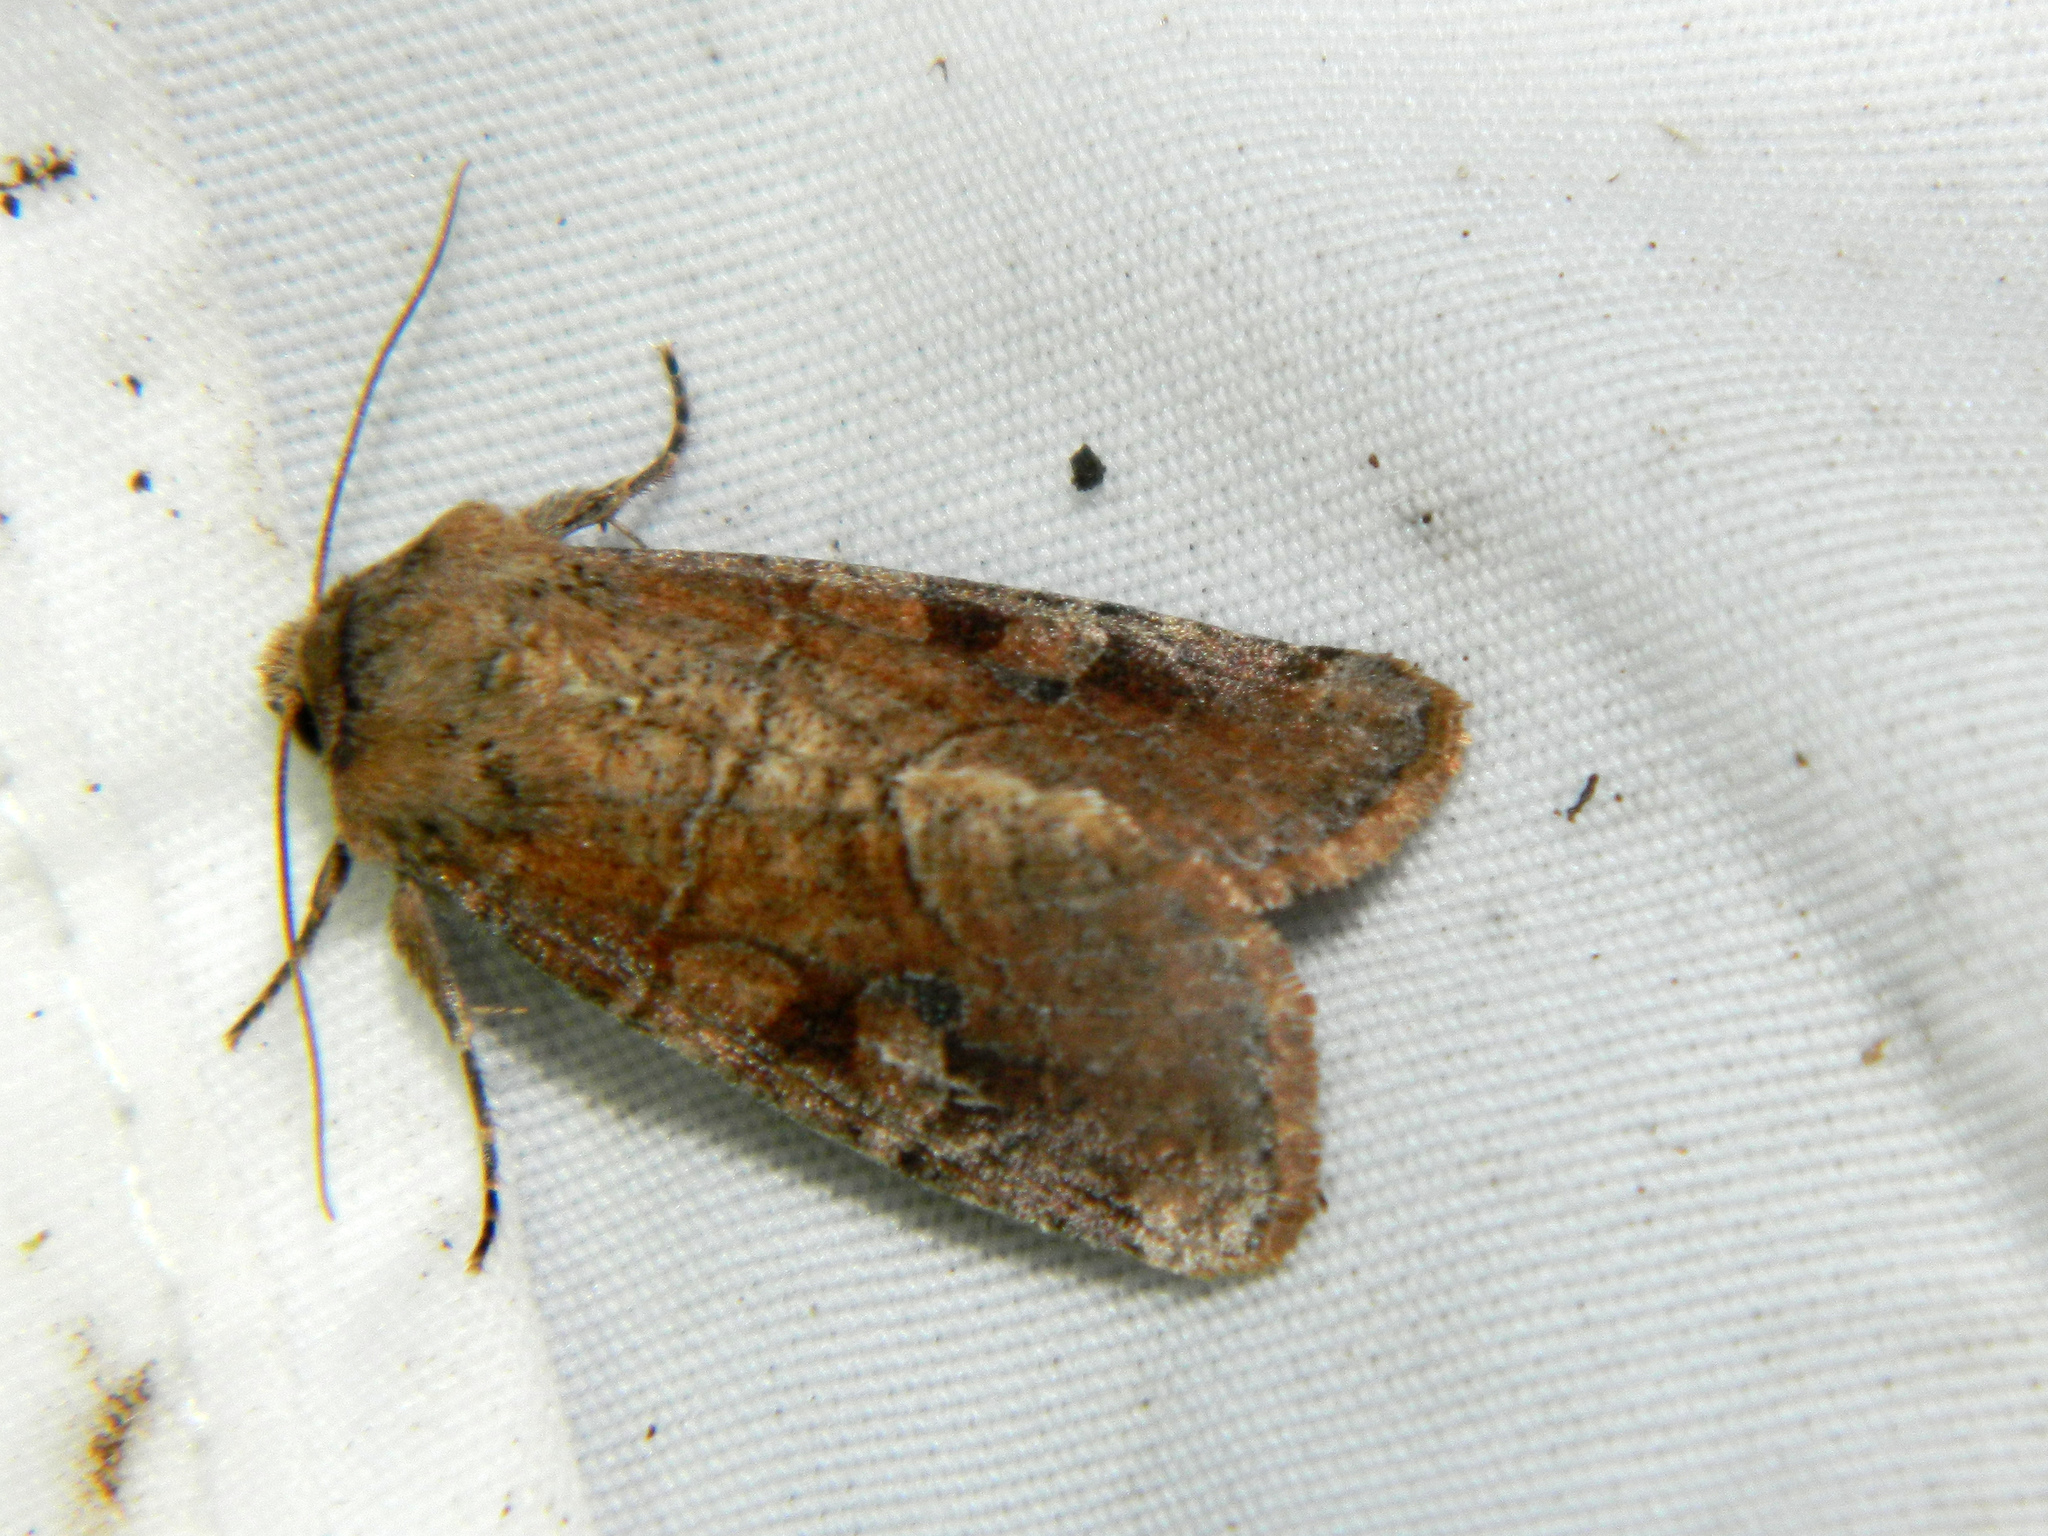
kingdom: Animalia
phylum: Arthropoda
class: Insecta
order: Lepidoptera
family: Noctuidae
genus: Crocigrapha
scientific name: Crocigrapha normani
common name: Norman's quaker
